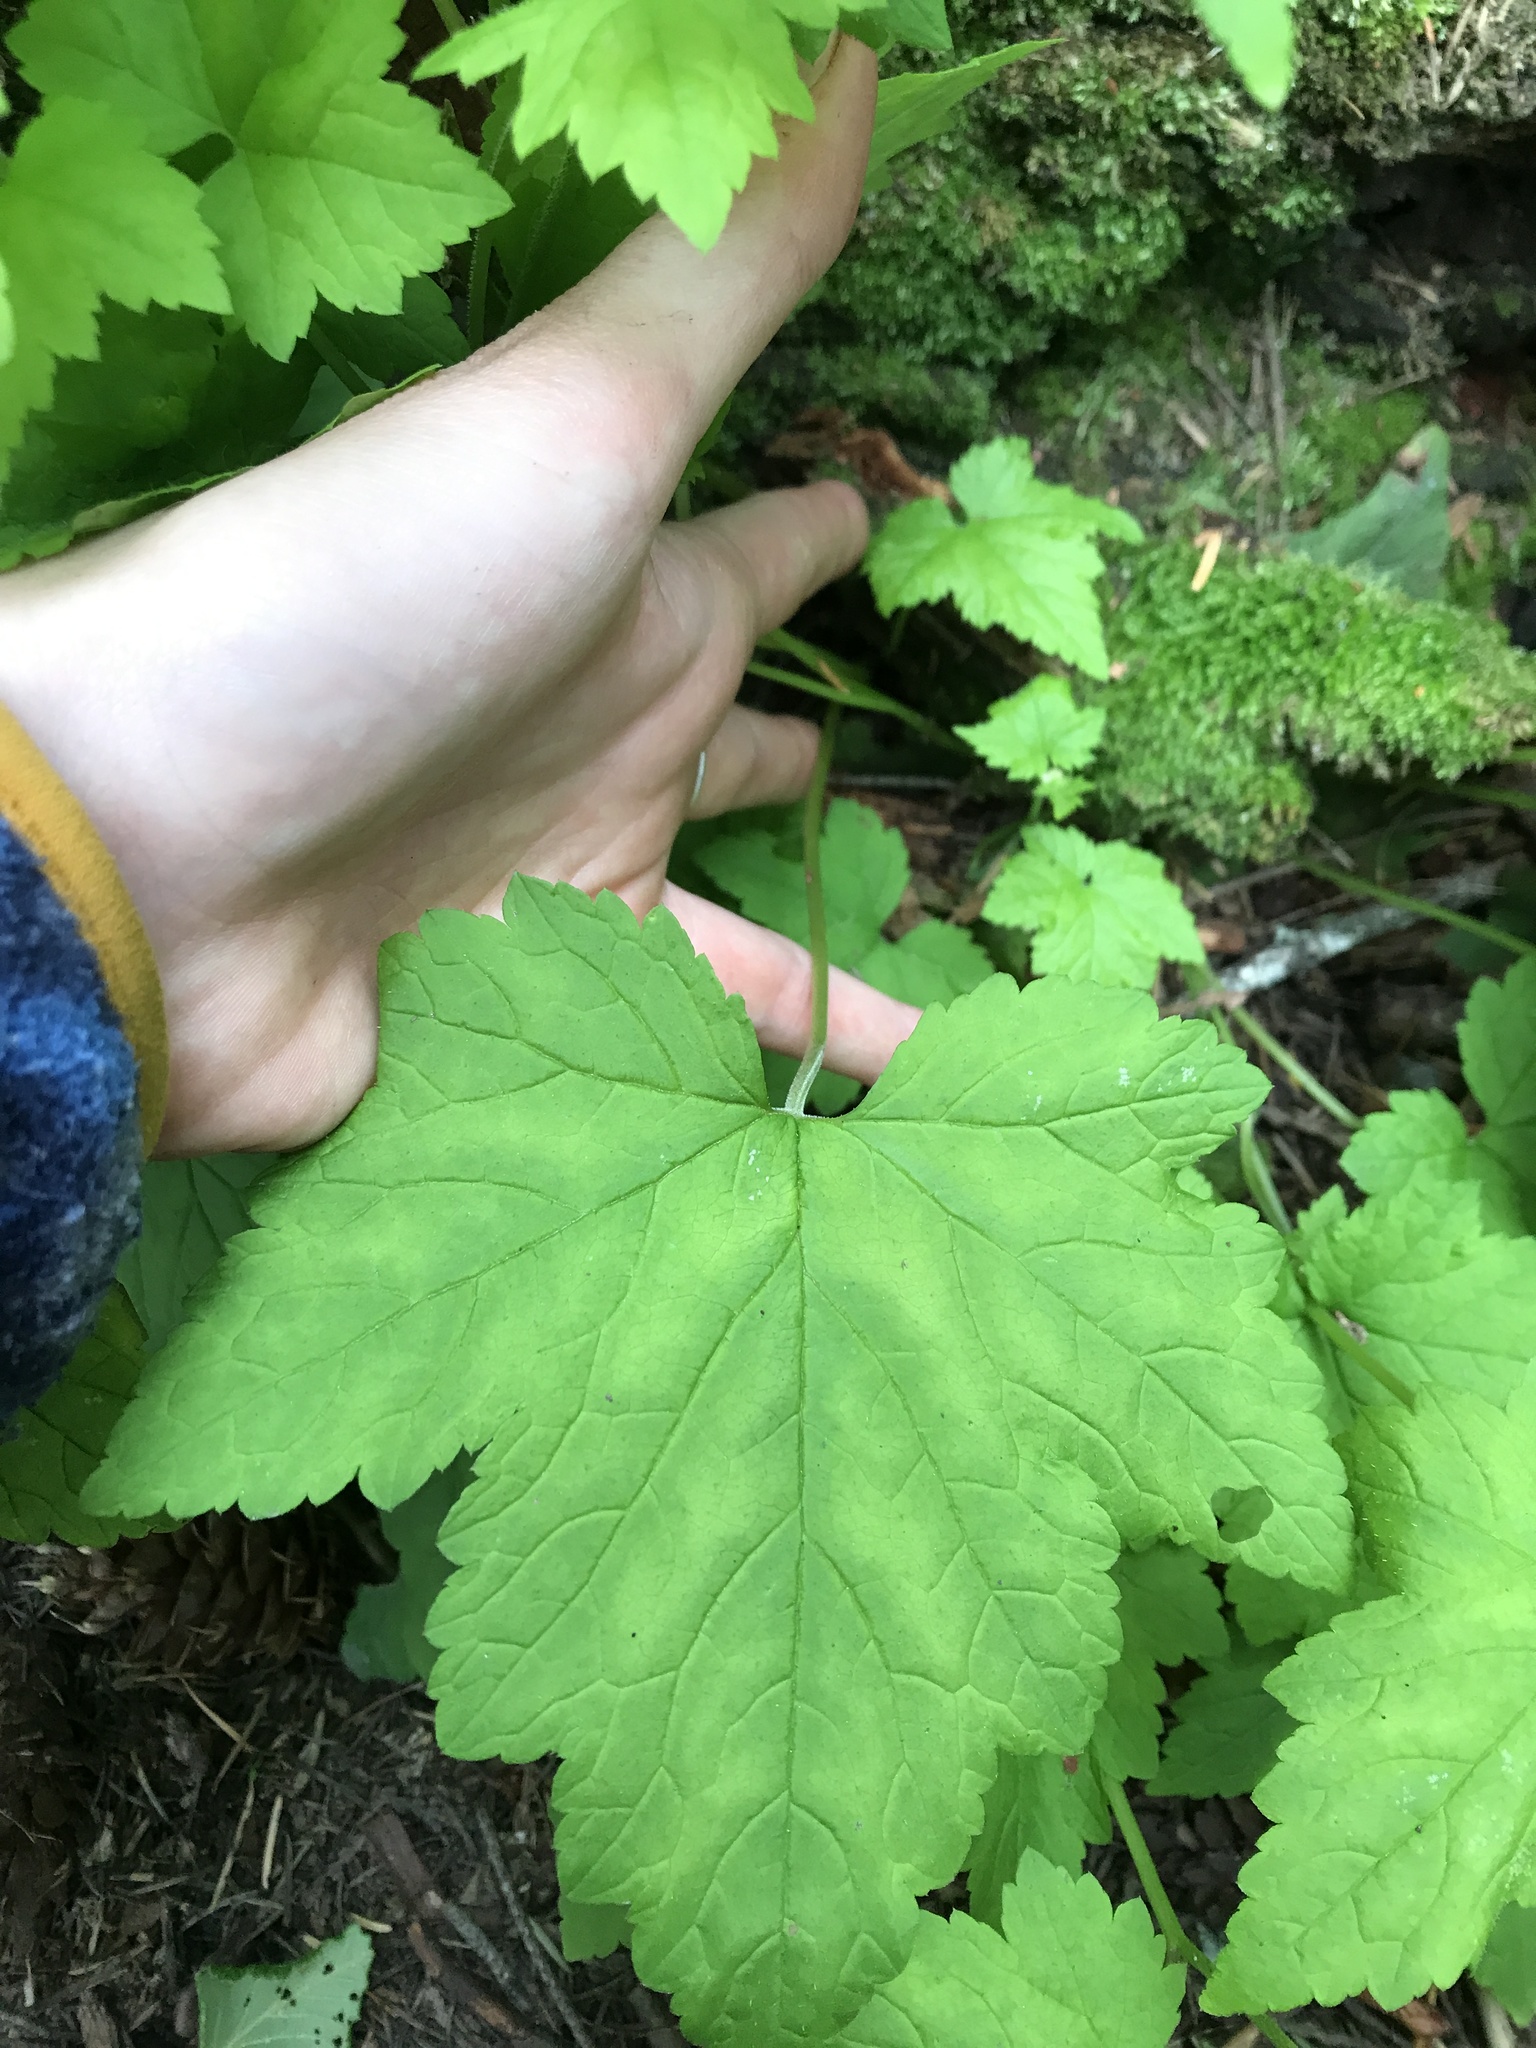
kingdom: Plantae
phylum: Tracheophyta
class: Magnoliopsida
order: Saxifragales
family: Saxifragaceae
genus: Tiarella
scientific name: Tiarella trifoliata
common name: Sugar-scoop
